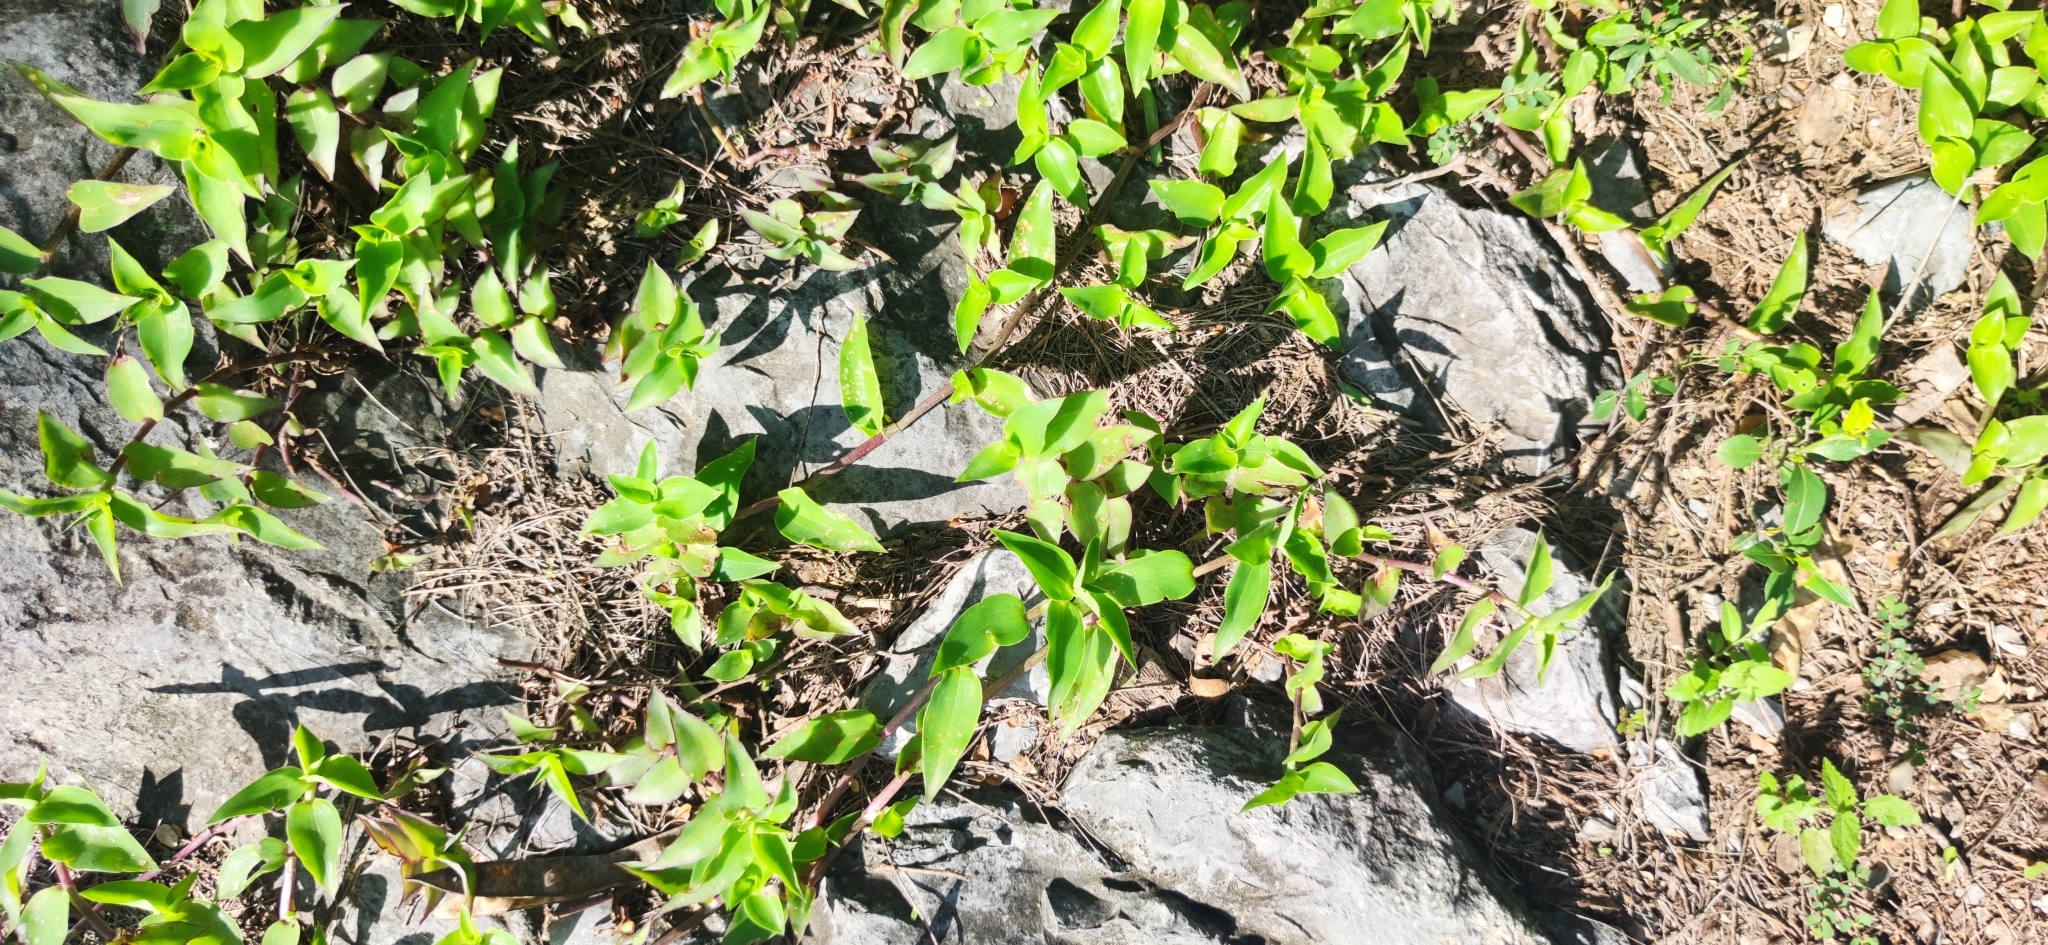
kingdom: Plantae
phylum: Tracheophyta
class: Liliopsida
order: Commelinales
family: Commelinaceae
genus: Callisia
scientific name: Callisia repens
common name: Creeping inchplant
